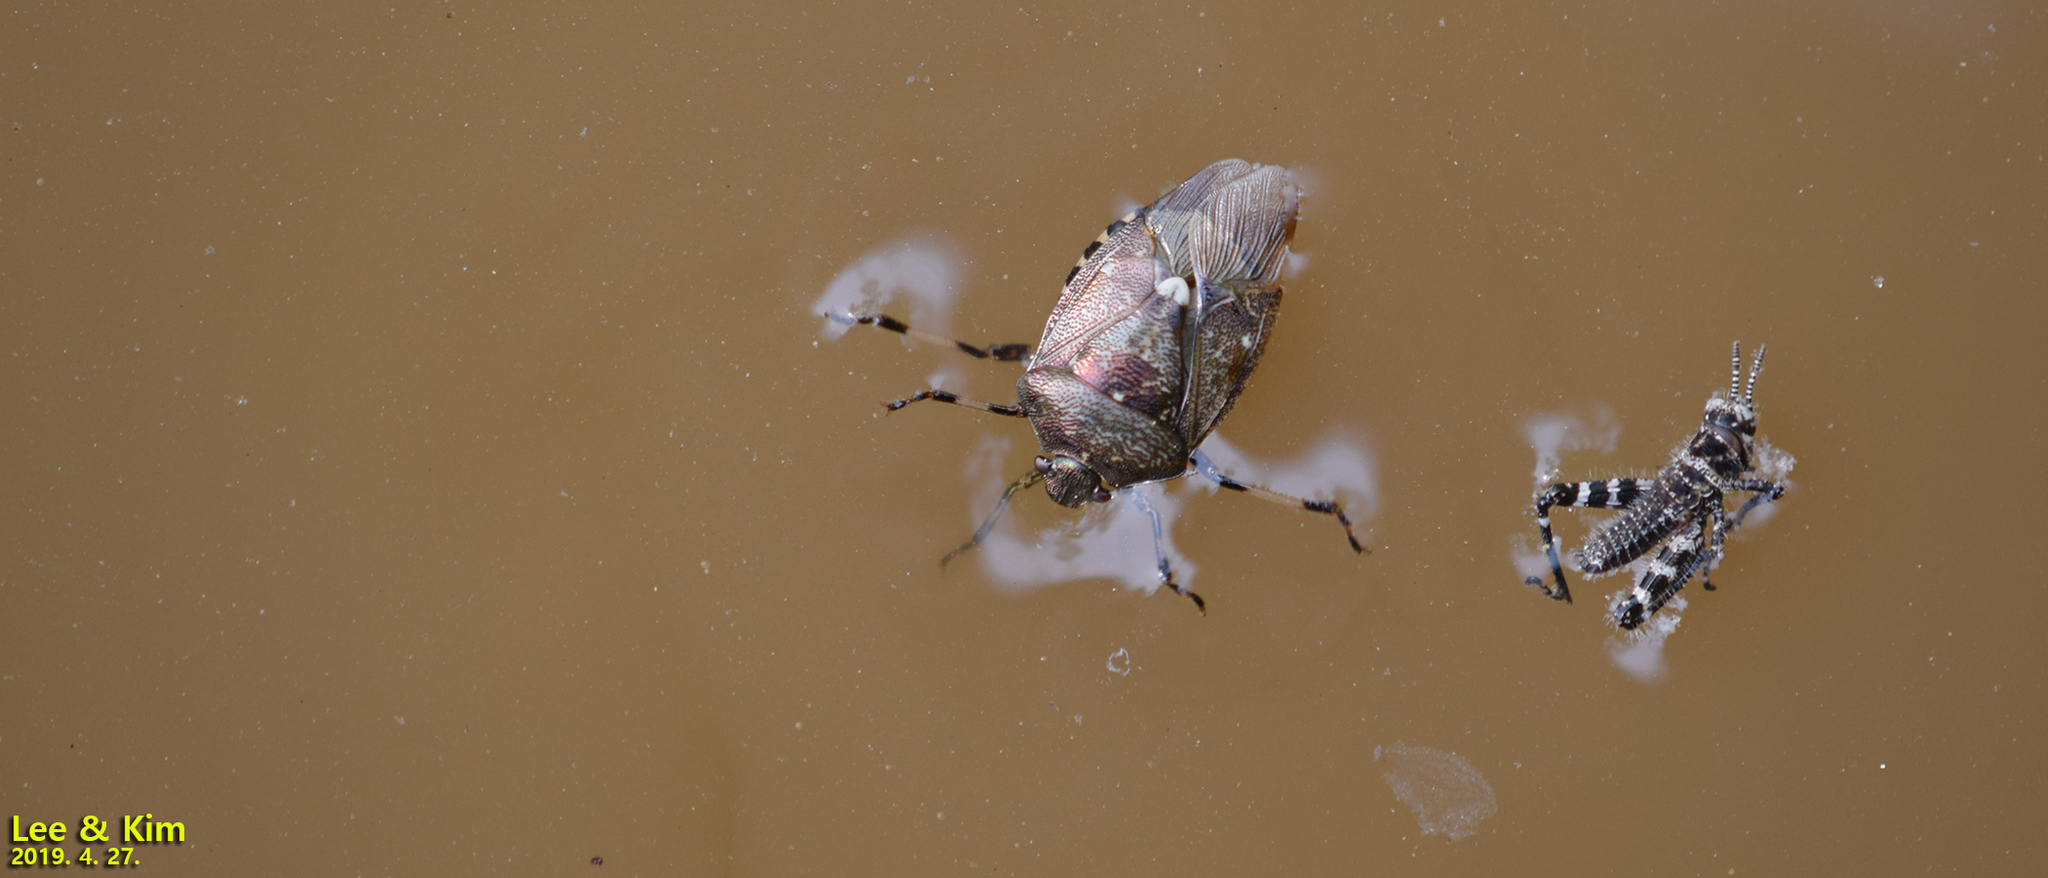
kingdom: Animalia
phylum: Arthropoda
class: Insecta
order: Hemiptera
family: Pentatomidae
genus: Menida
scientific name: Menida disjecta
